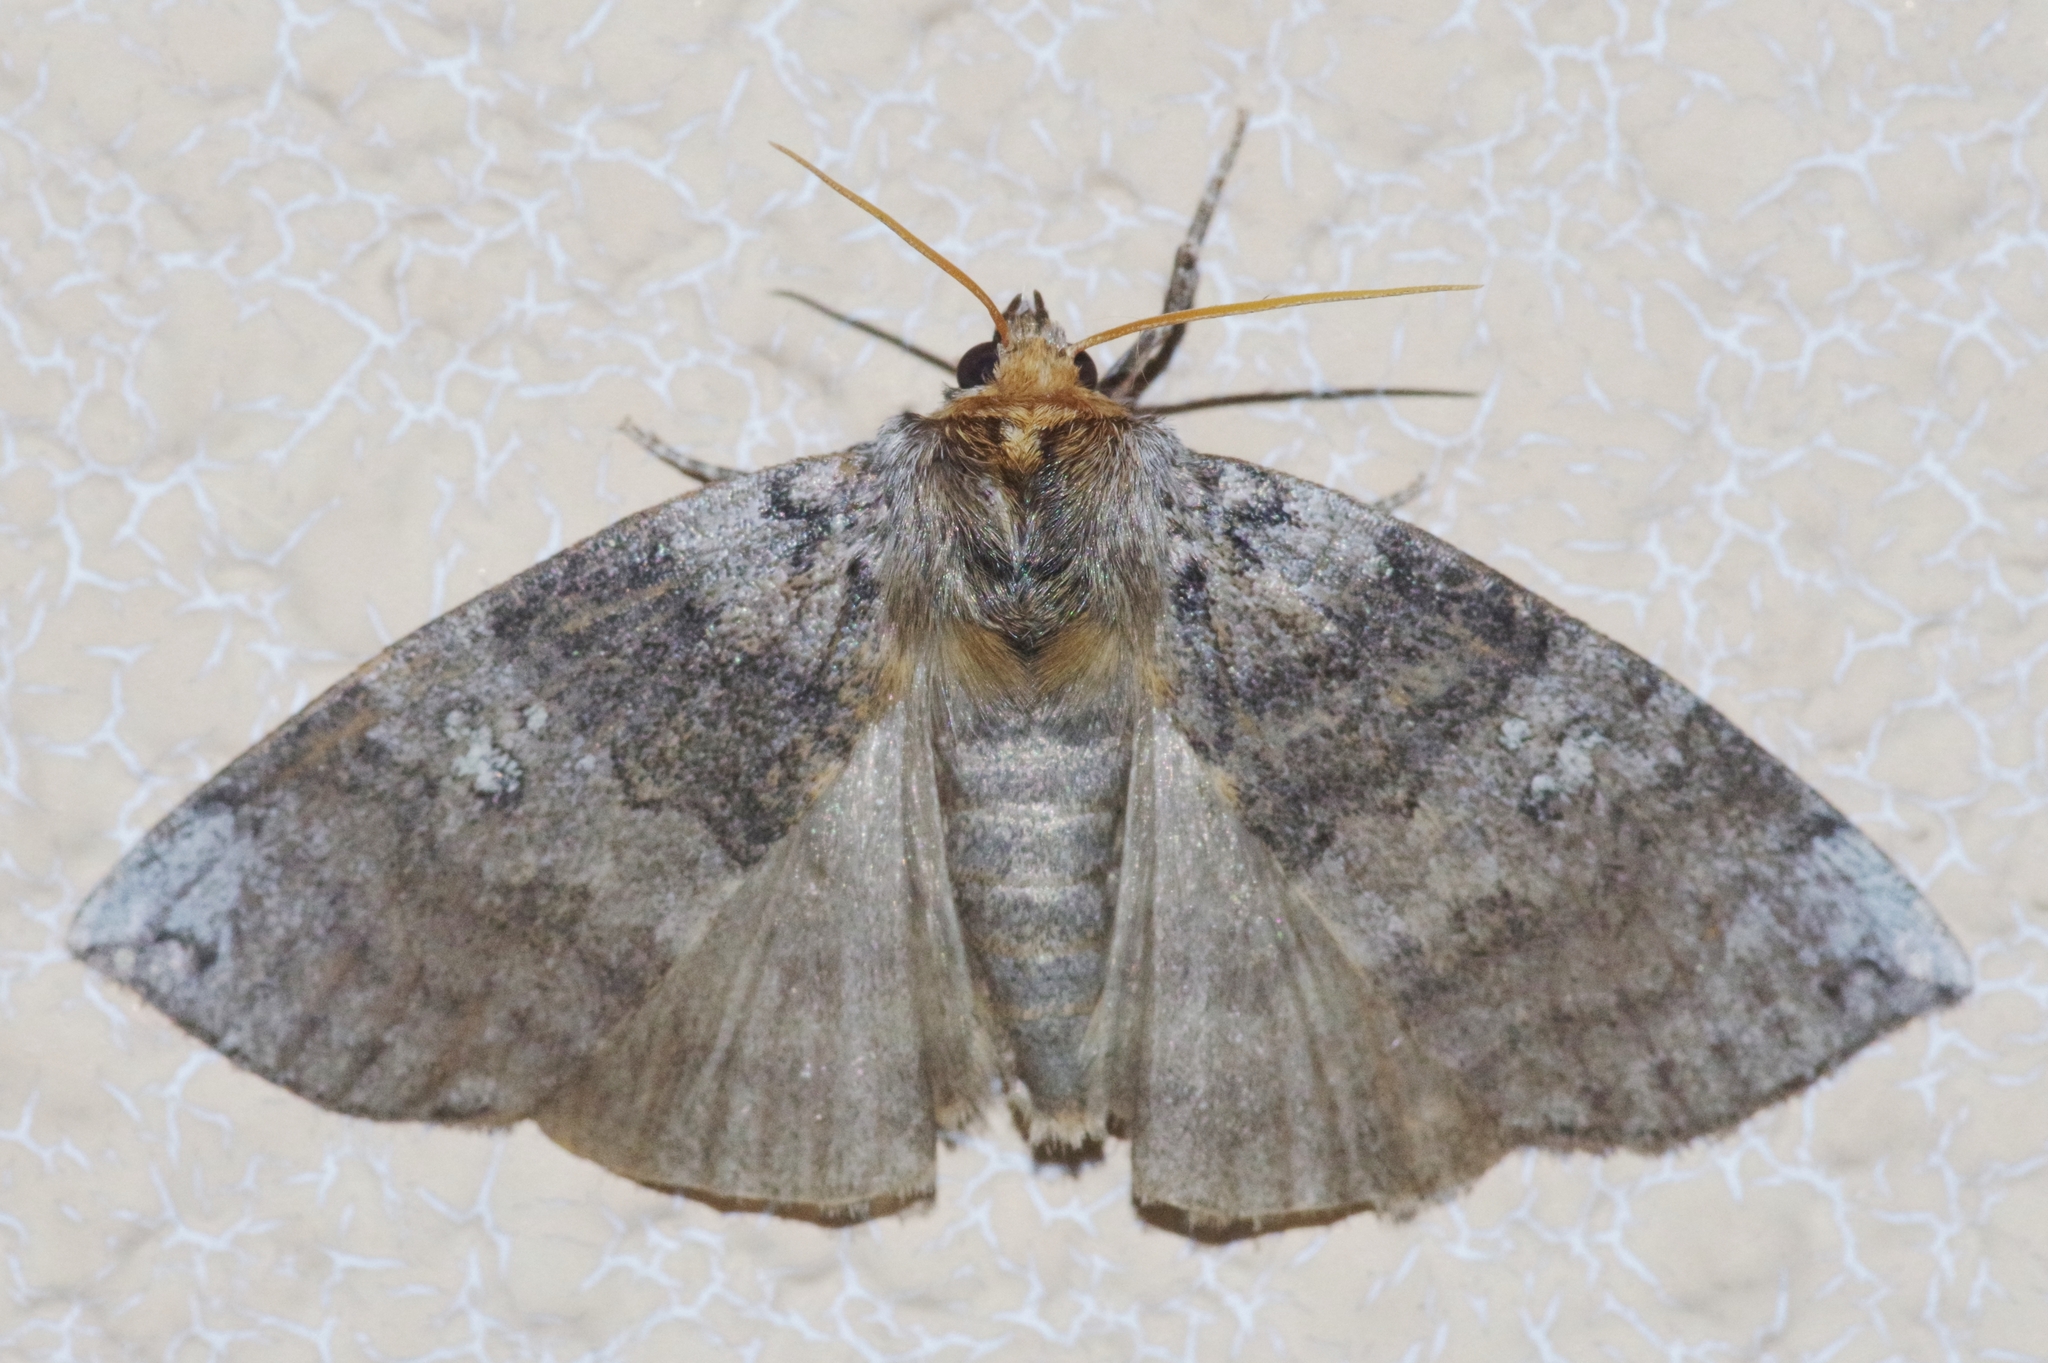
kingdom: Animalia
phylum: Arthropoda
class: Insecta
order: Lepidoptera
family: Drepanidae
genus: Tethea
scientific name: Tethea ampliata
